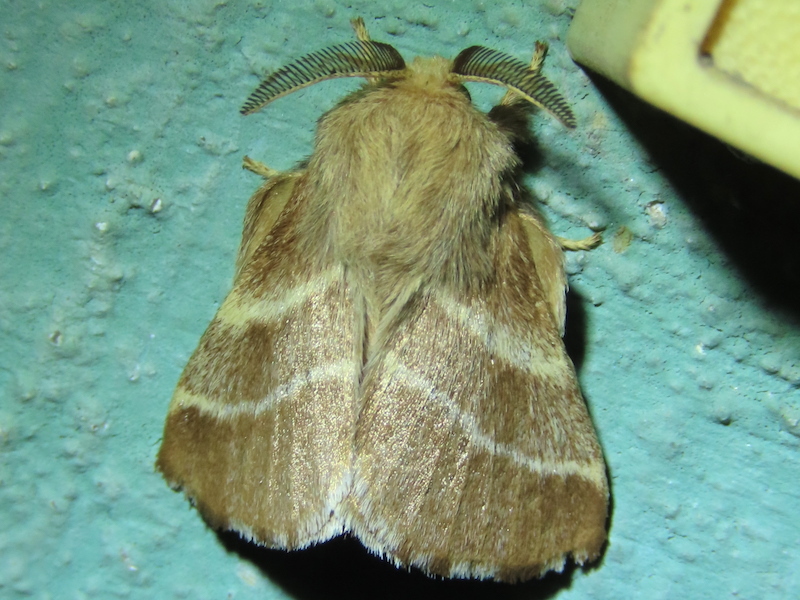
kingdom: Animalia
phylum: Arthropoda
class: Insecta
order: Lepidoptera
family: Lasiocampidae
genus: Malacosoma
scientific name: Malacosoma americana
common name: Eastern tent caterpillar moth
